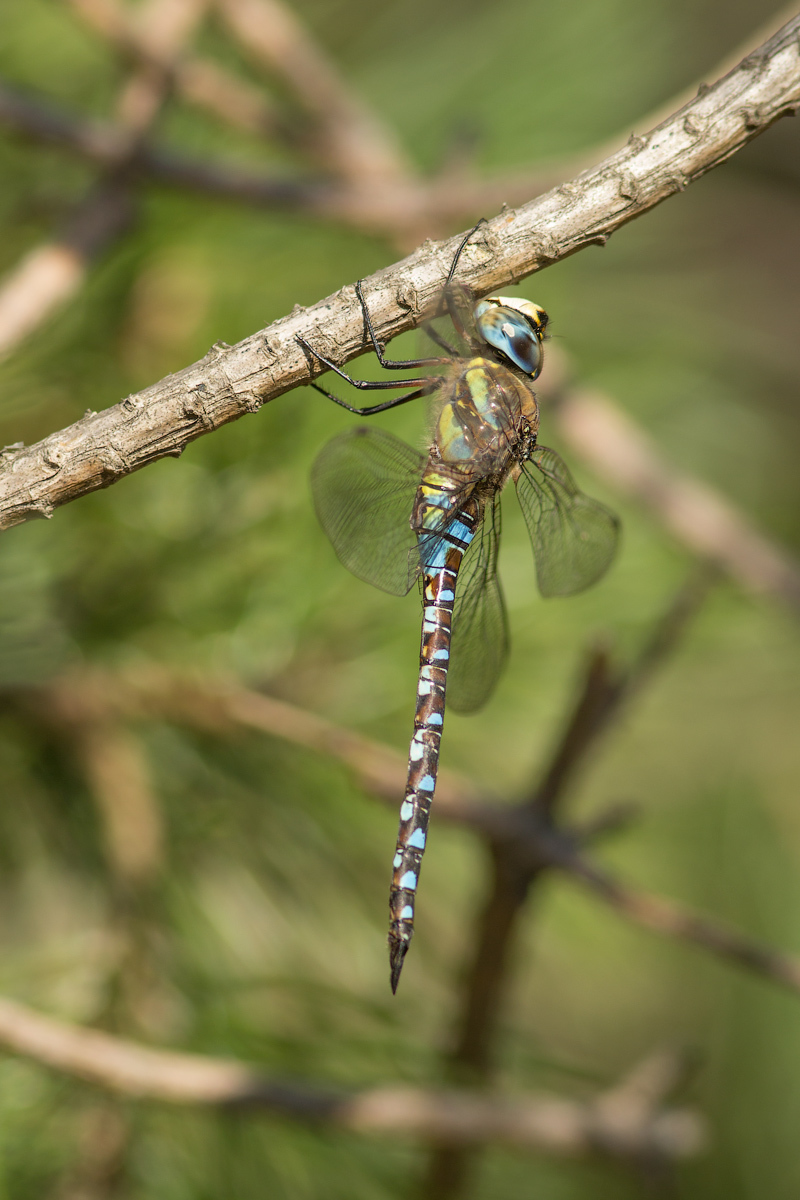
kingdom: Animalia
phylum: Arthropoda
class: Insecta
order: Odonata
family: Aeshnidae
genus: Aeshna
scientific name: Aeshna mixta
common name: Migrant hawker
